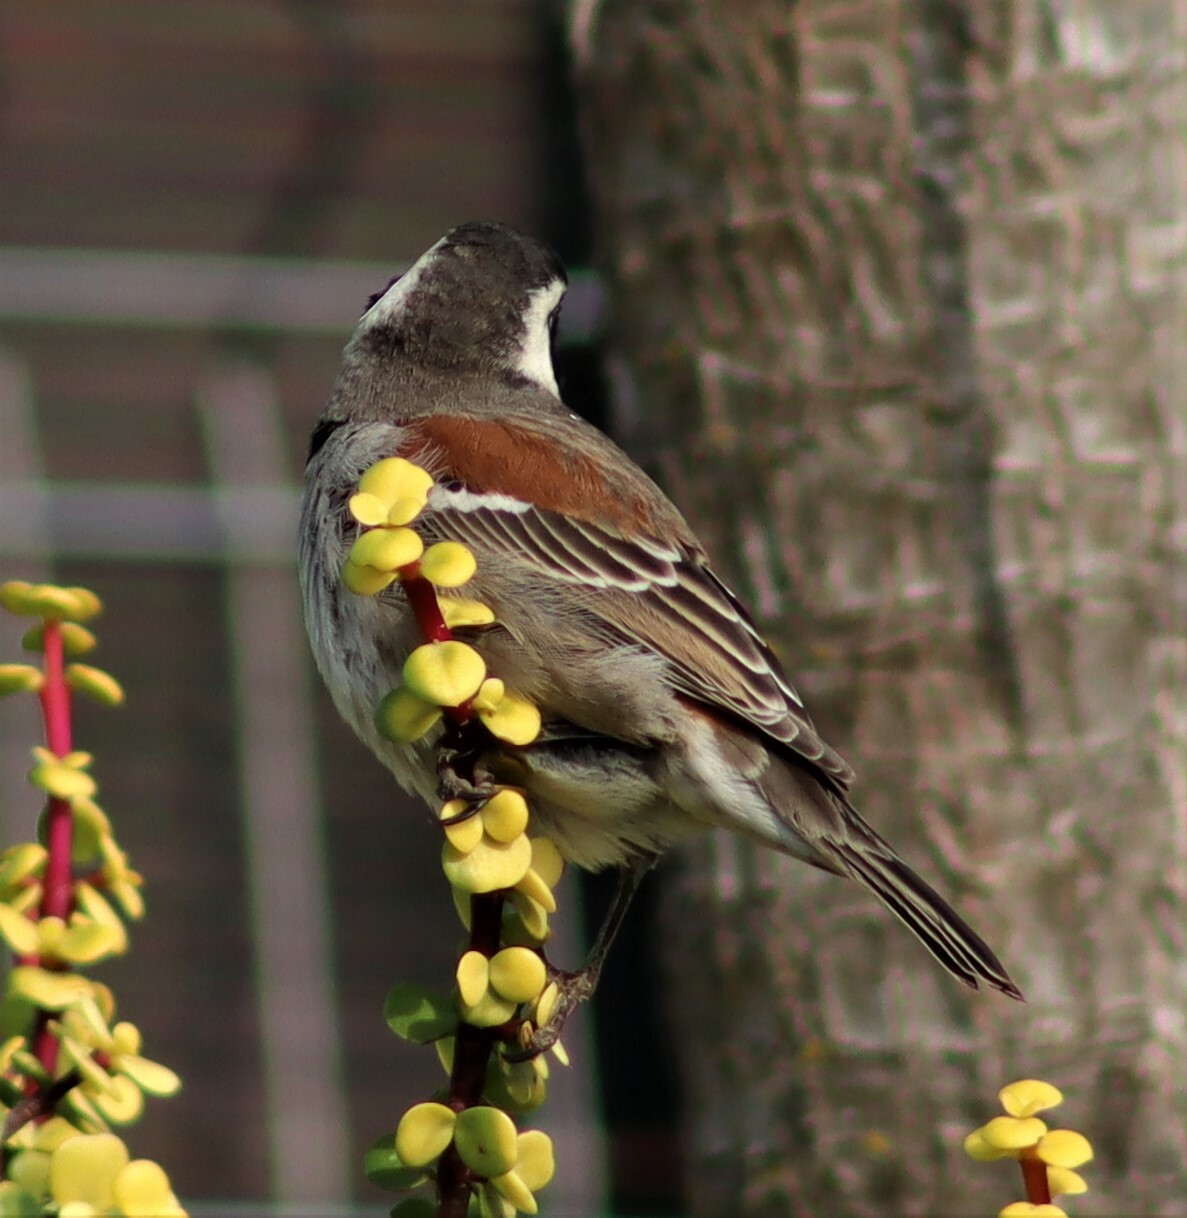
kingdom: Animalia
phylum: Chordata
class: Aves
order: Passeriformes
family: Passeridae
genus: Passer
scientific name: Passer melanurus
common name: Cape sparrow
